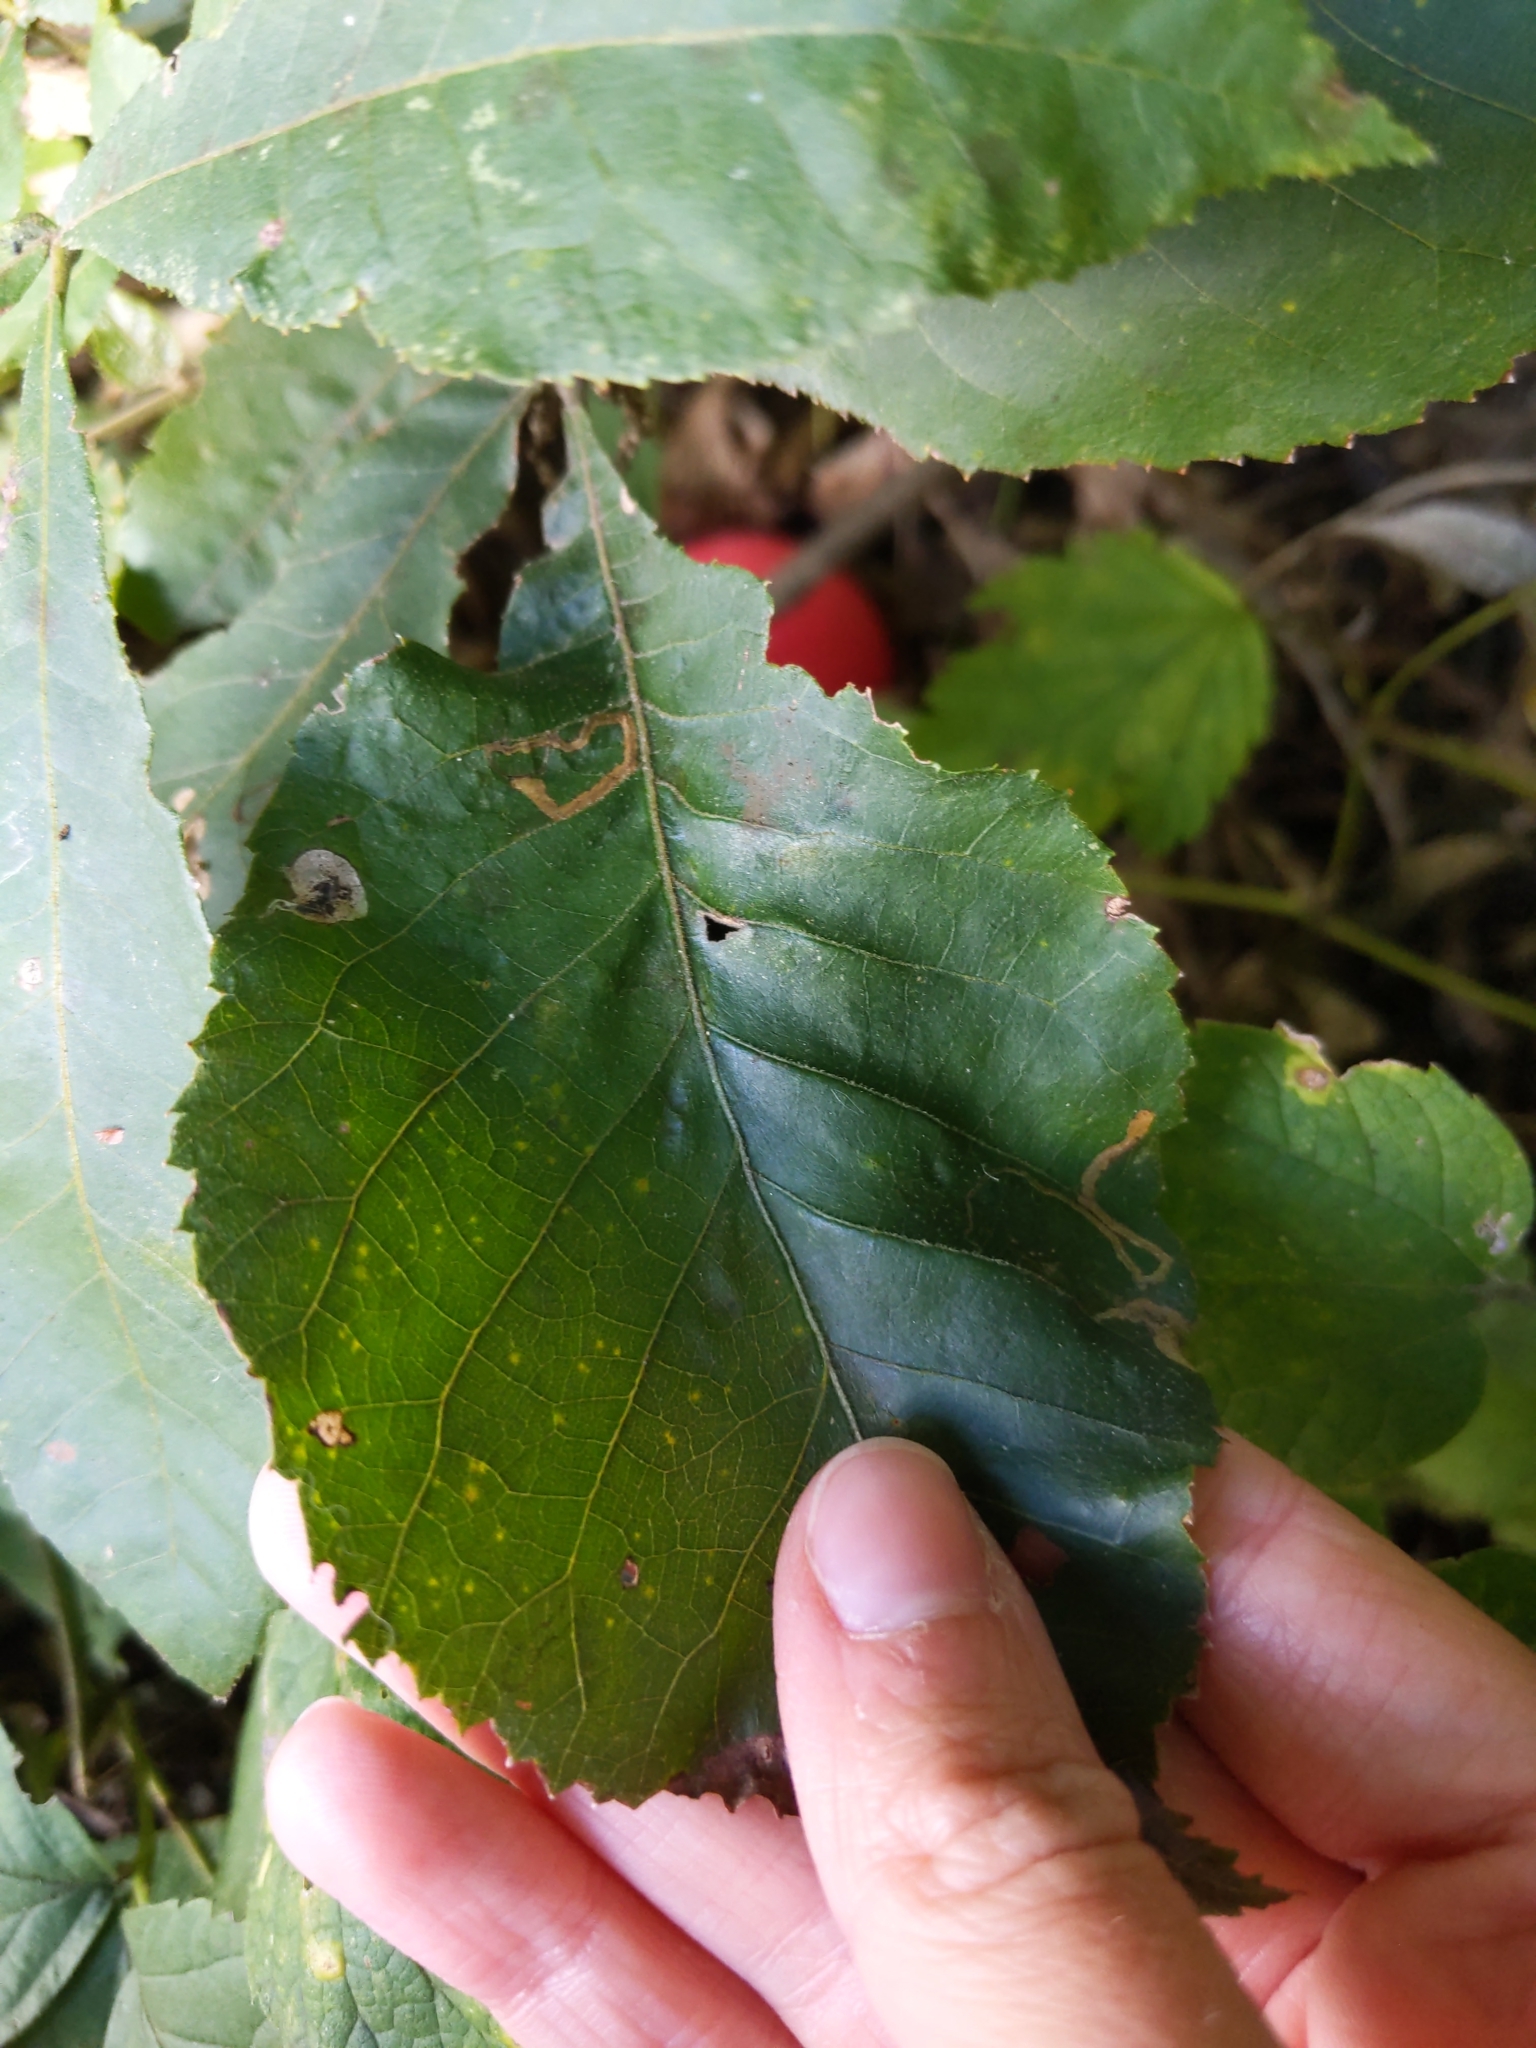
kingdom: Animalia
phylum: Arthropoda
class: Insecta
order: Lepidoptera
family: Gracillariidae
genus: Cameraria
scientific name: Cameraria caryaefoliella
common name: Pecan leafminer moth
